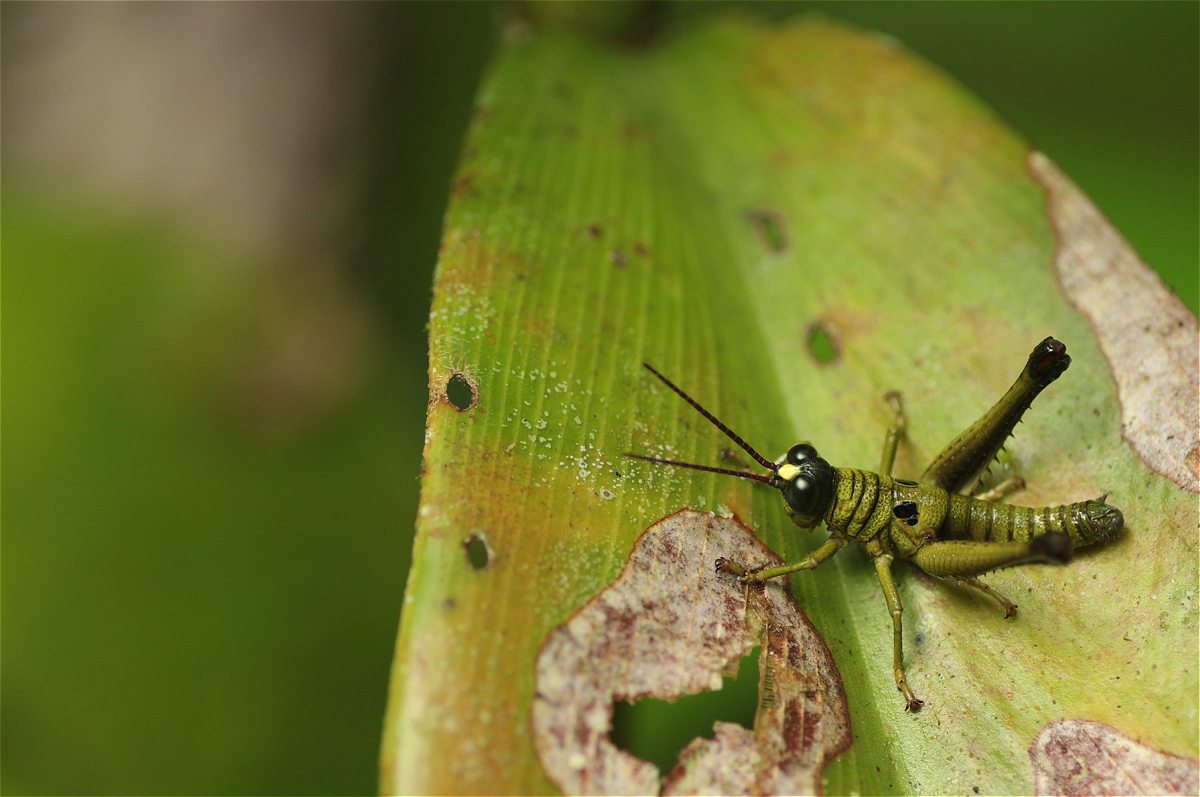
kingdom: Animalia
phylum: Arthropoda
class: Insecta
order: Orthoptera
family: Acrididae
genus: Ommatolampis
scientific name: Ommatolampis perspicillata
